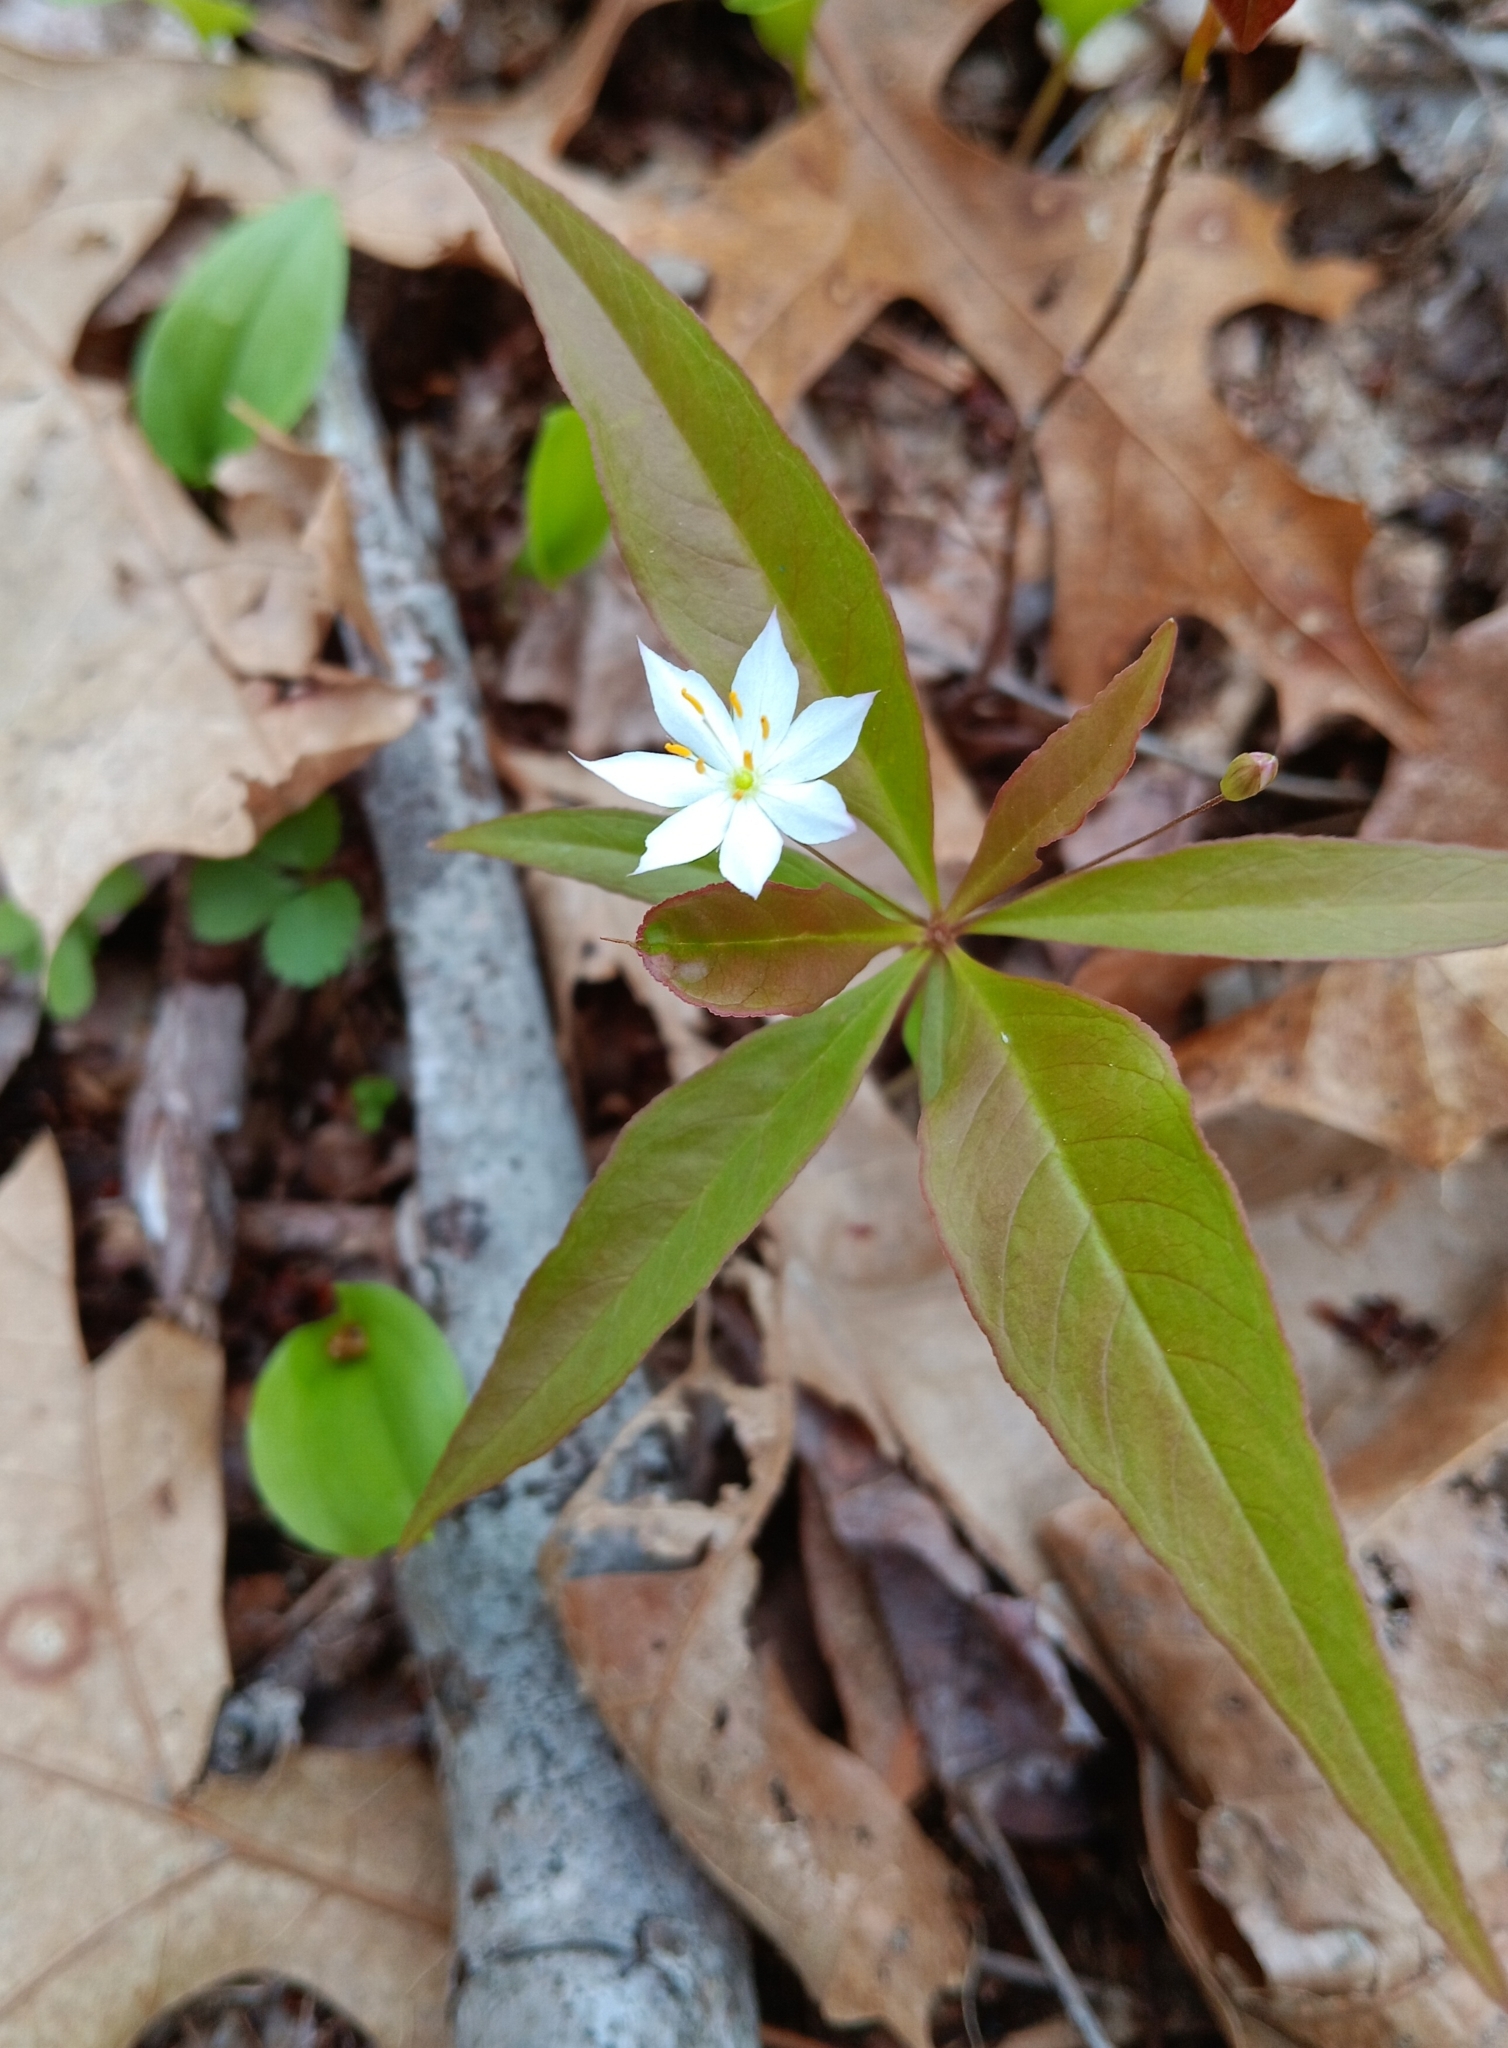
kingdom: Plantae
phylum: Tracheophyta
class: Magnoliopsida
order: Ericales
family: Primulaceae
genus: Lysimachia
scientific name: Lysimachia borealis
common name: American starflower
